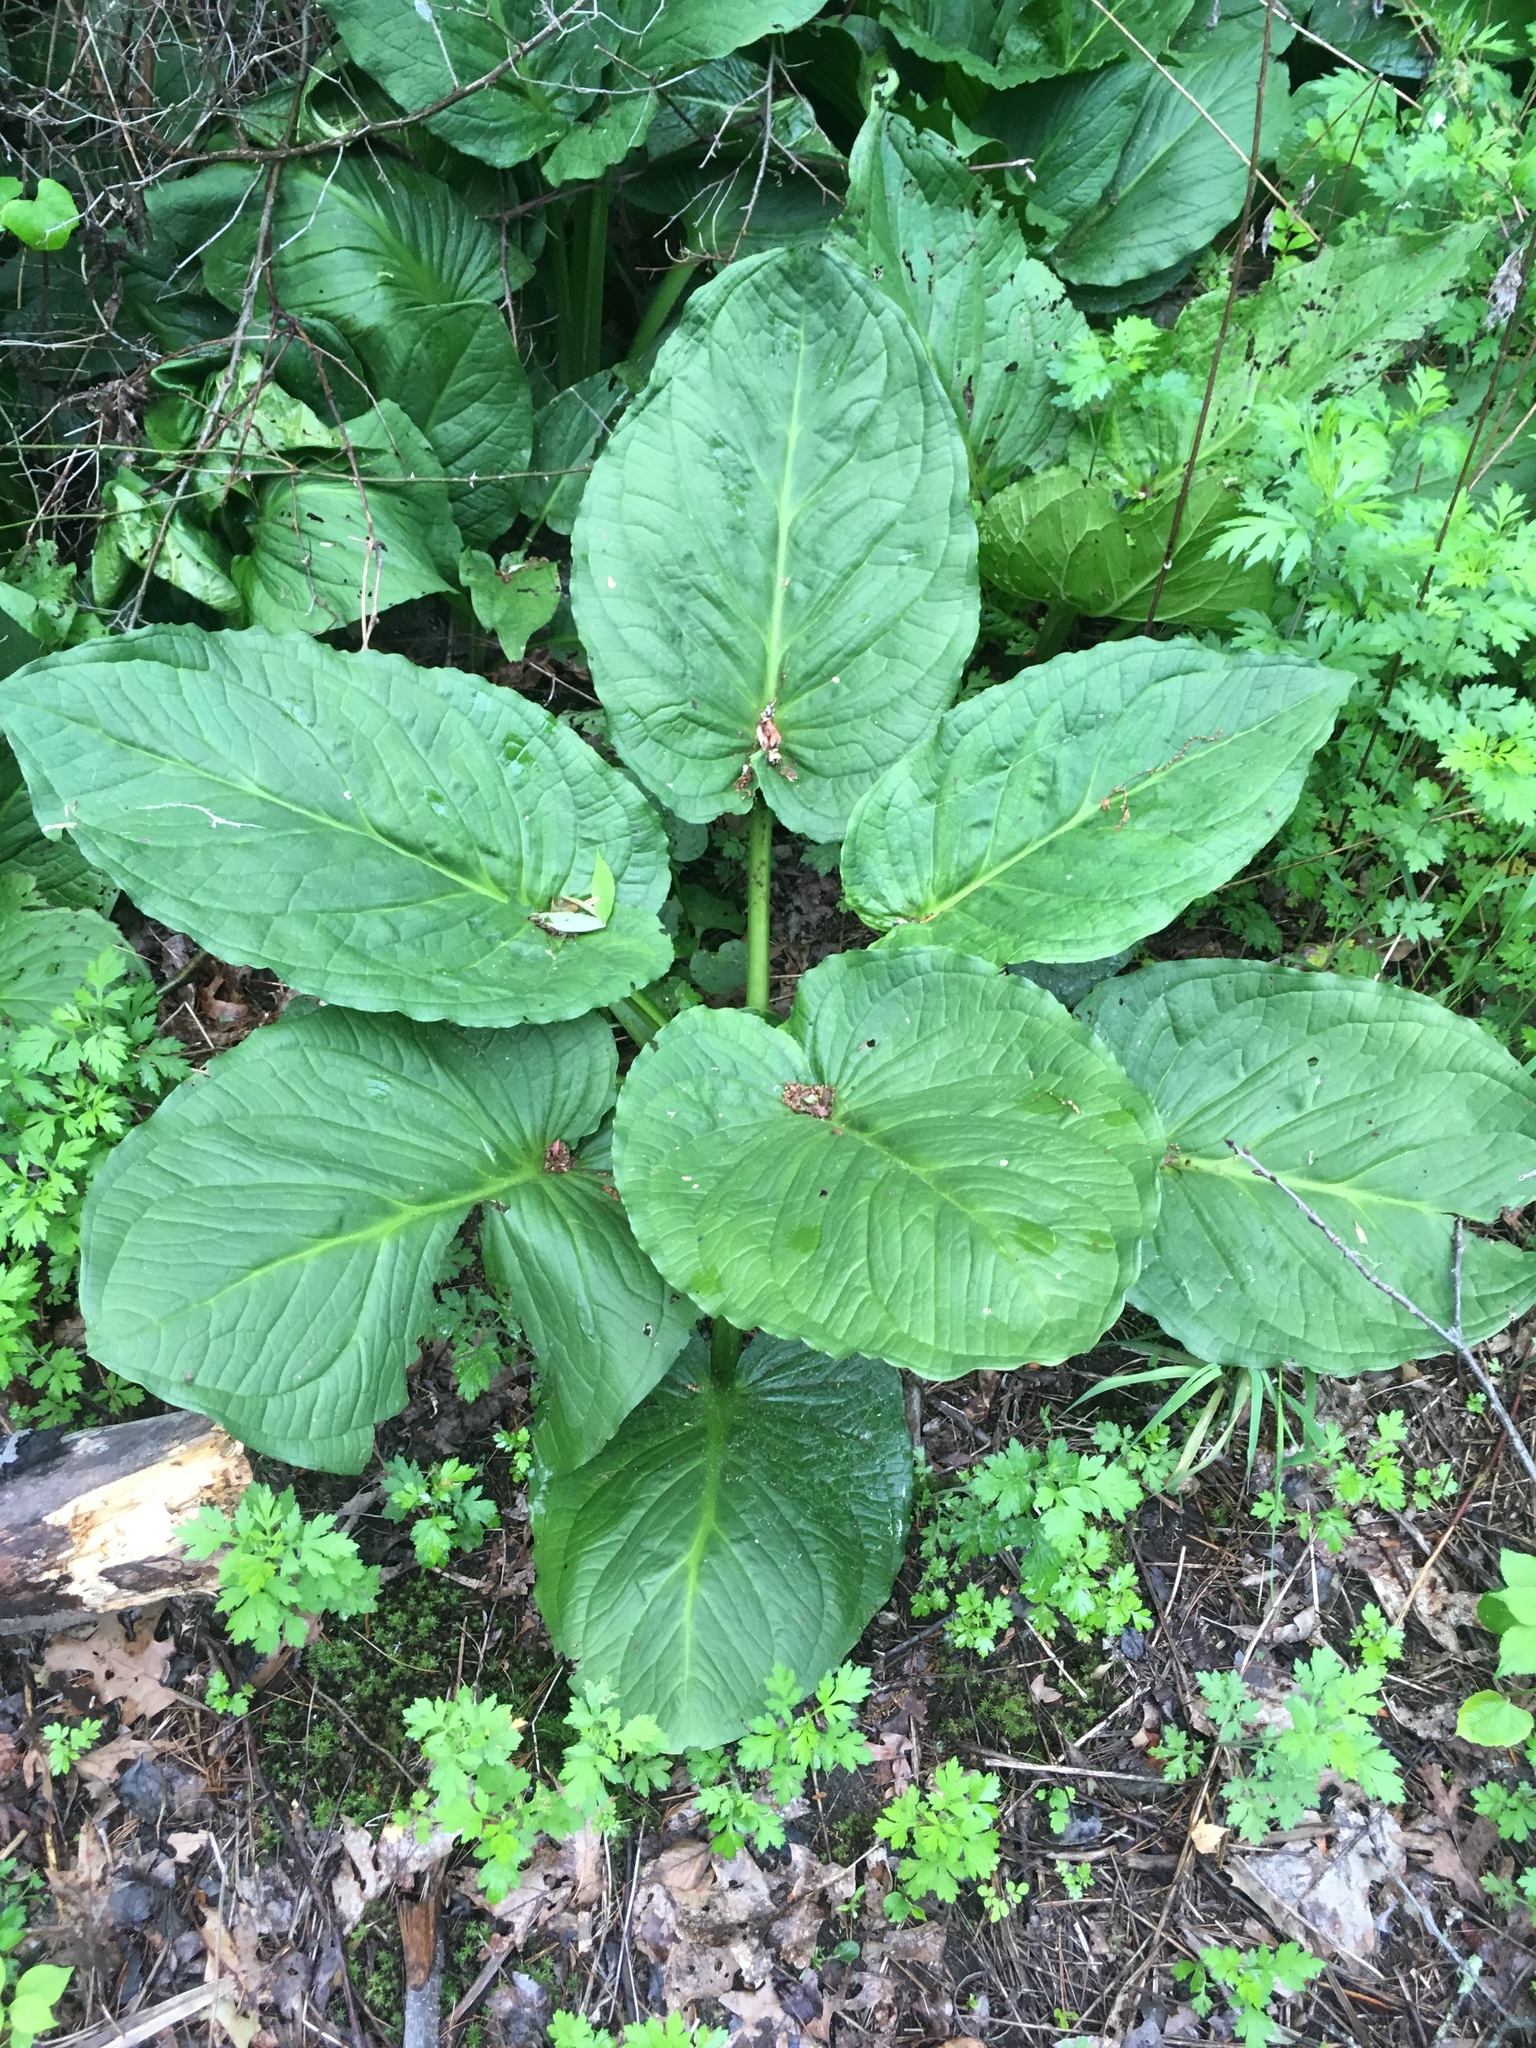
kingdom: Plantae
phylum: Tracheophyta
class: Liliopsida
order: Alismatales
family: Araceae
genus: Symplocarpus
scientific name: Symplocarpus foetidus
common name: Eastern skunk cabbage
